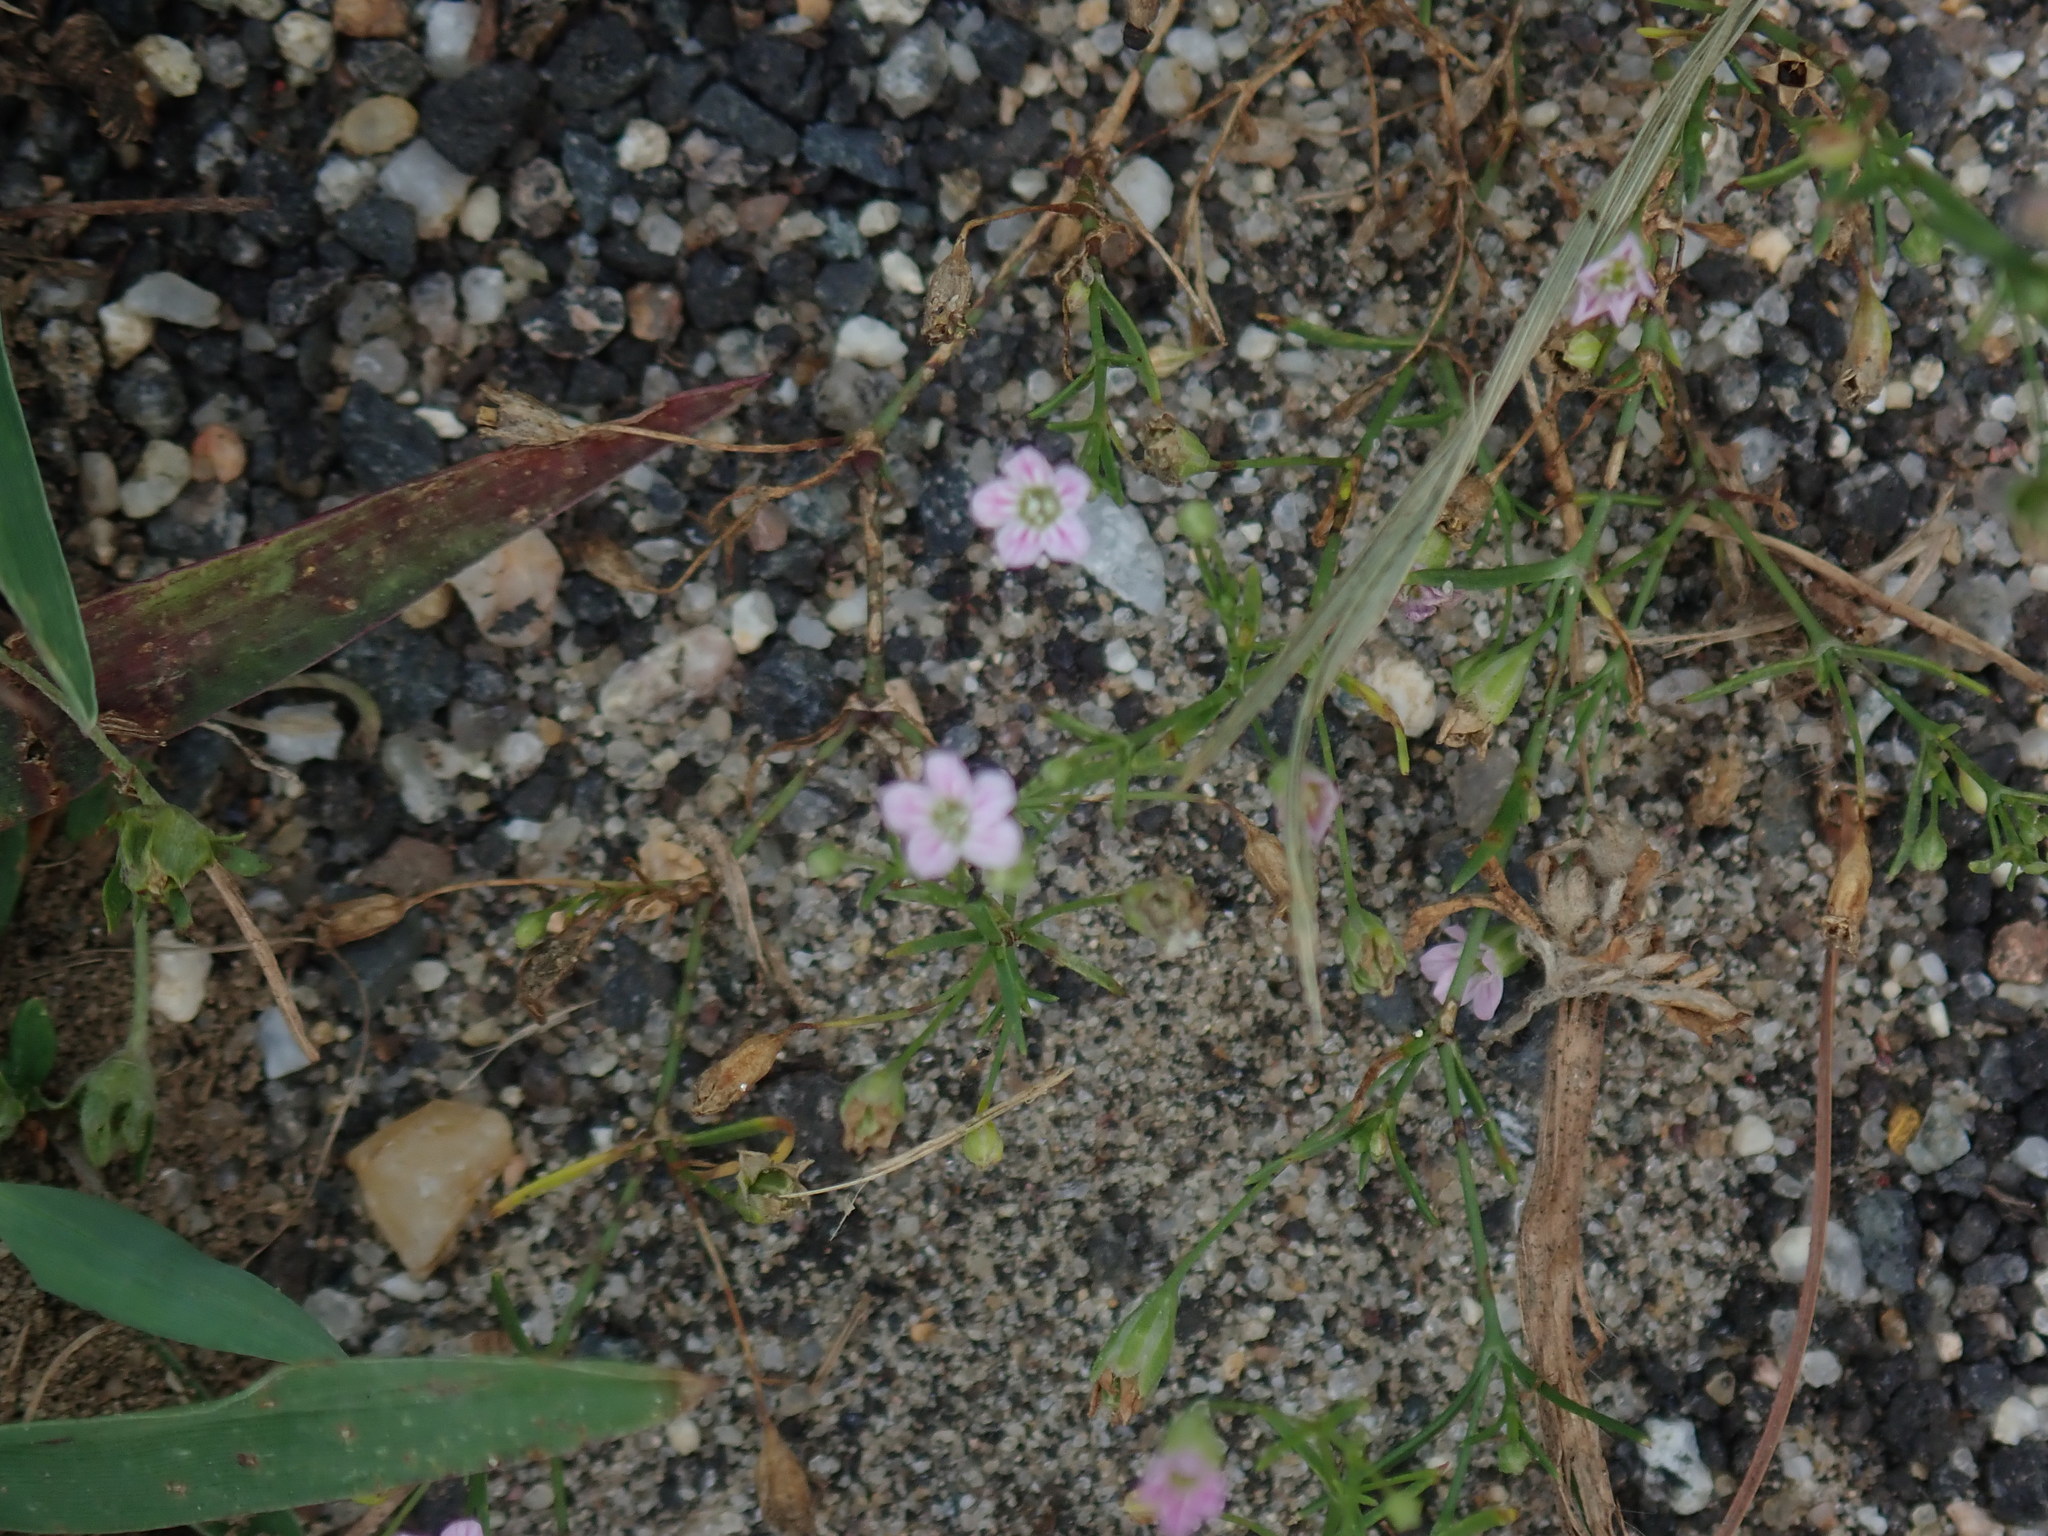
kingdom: Plantae
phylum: Tracheophyta
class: Magnoliopsida
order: Caryophyllales
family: Caryophyllaceae
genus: Psammophiliella
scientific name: Psammophiliella muralis
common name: Cushion baby's-breath
